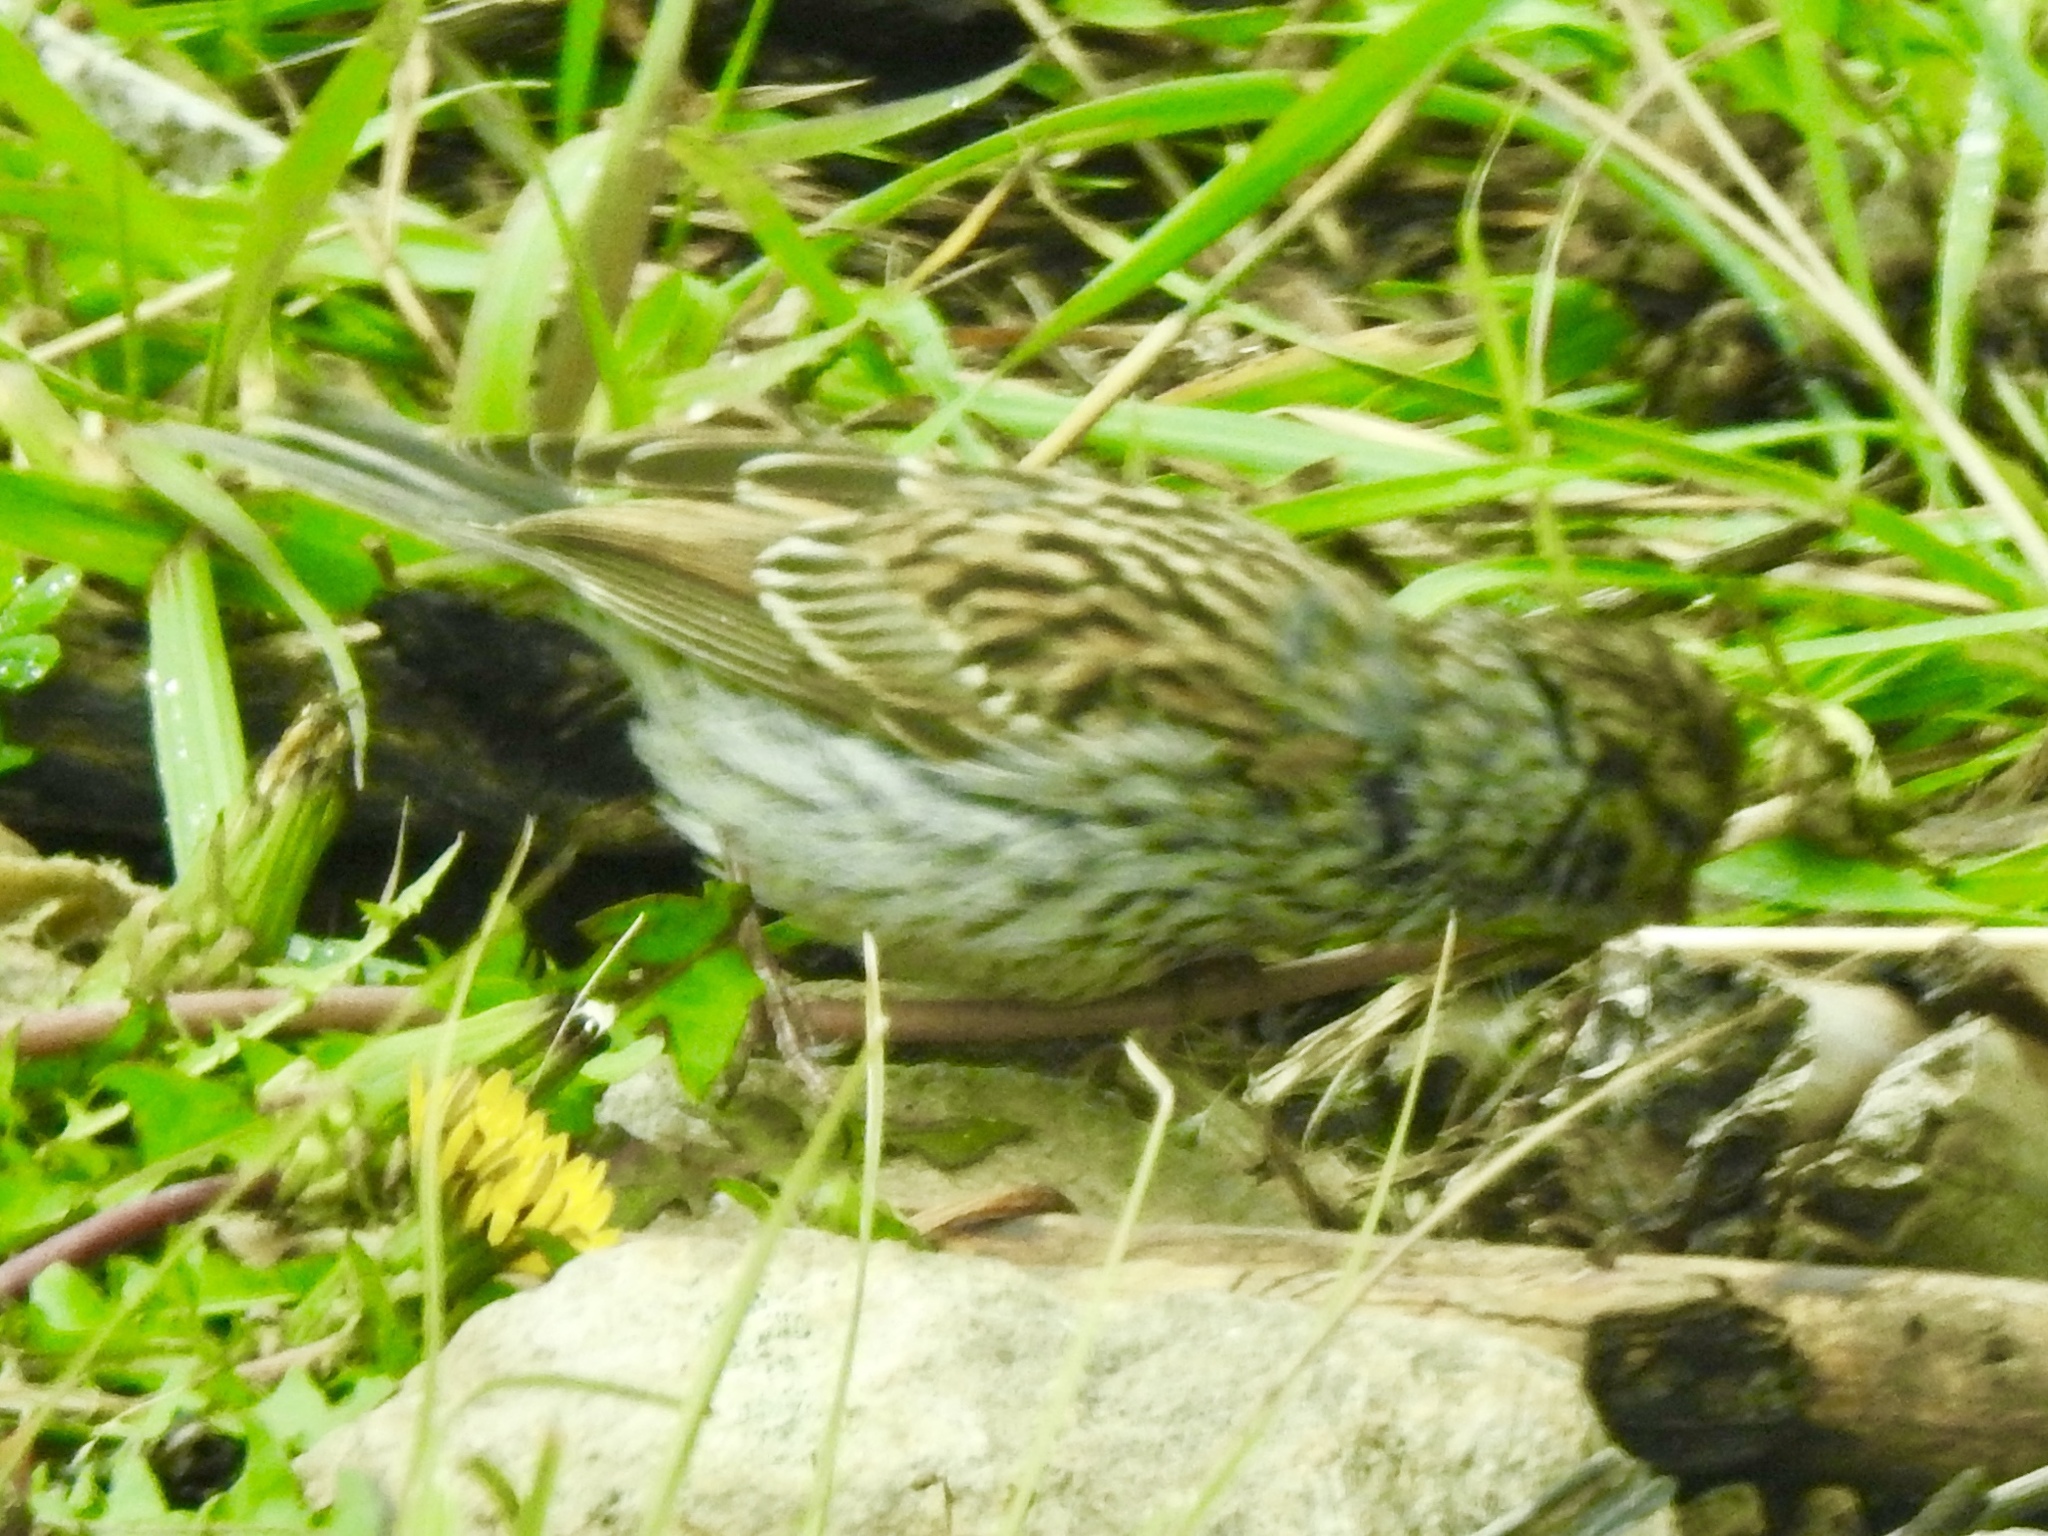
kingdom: Animalia
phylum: Chordata
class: Aves
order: Passeriformes
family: Passerellidae
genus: Spizella
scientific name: Spizella passerina
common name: Chipping sparrow
